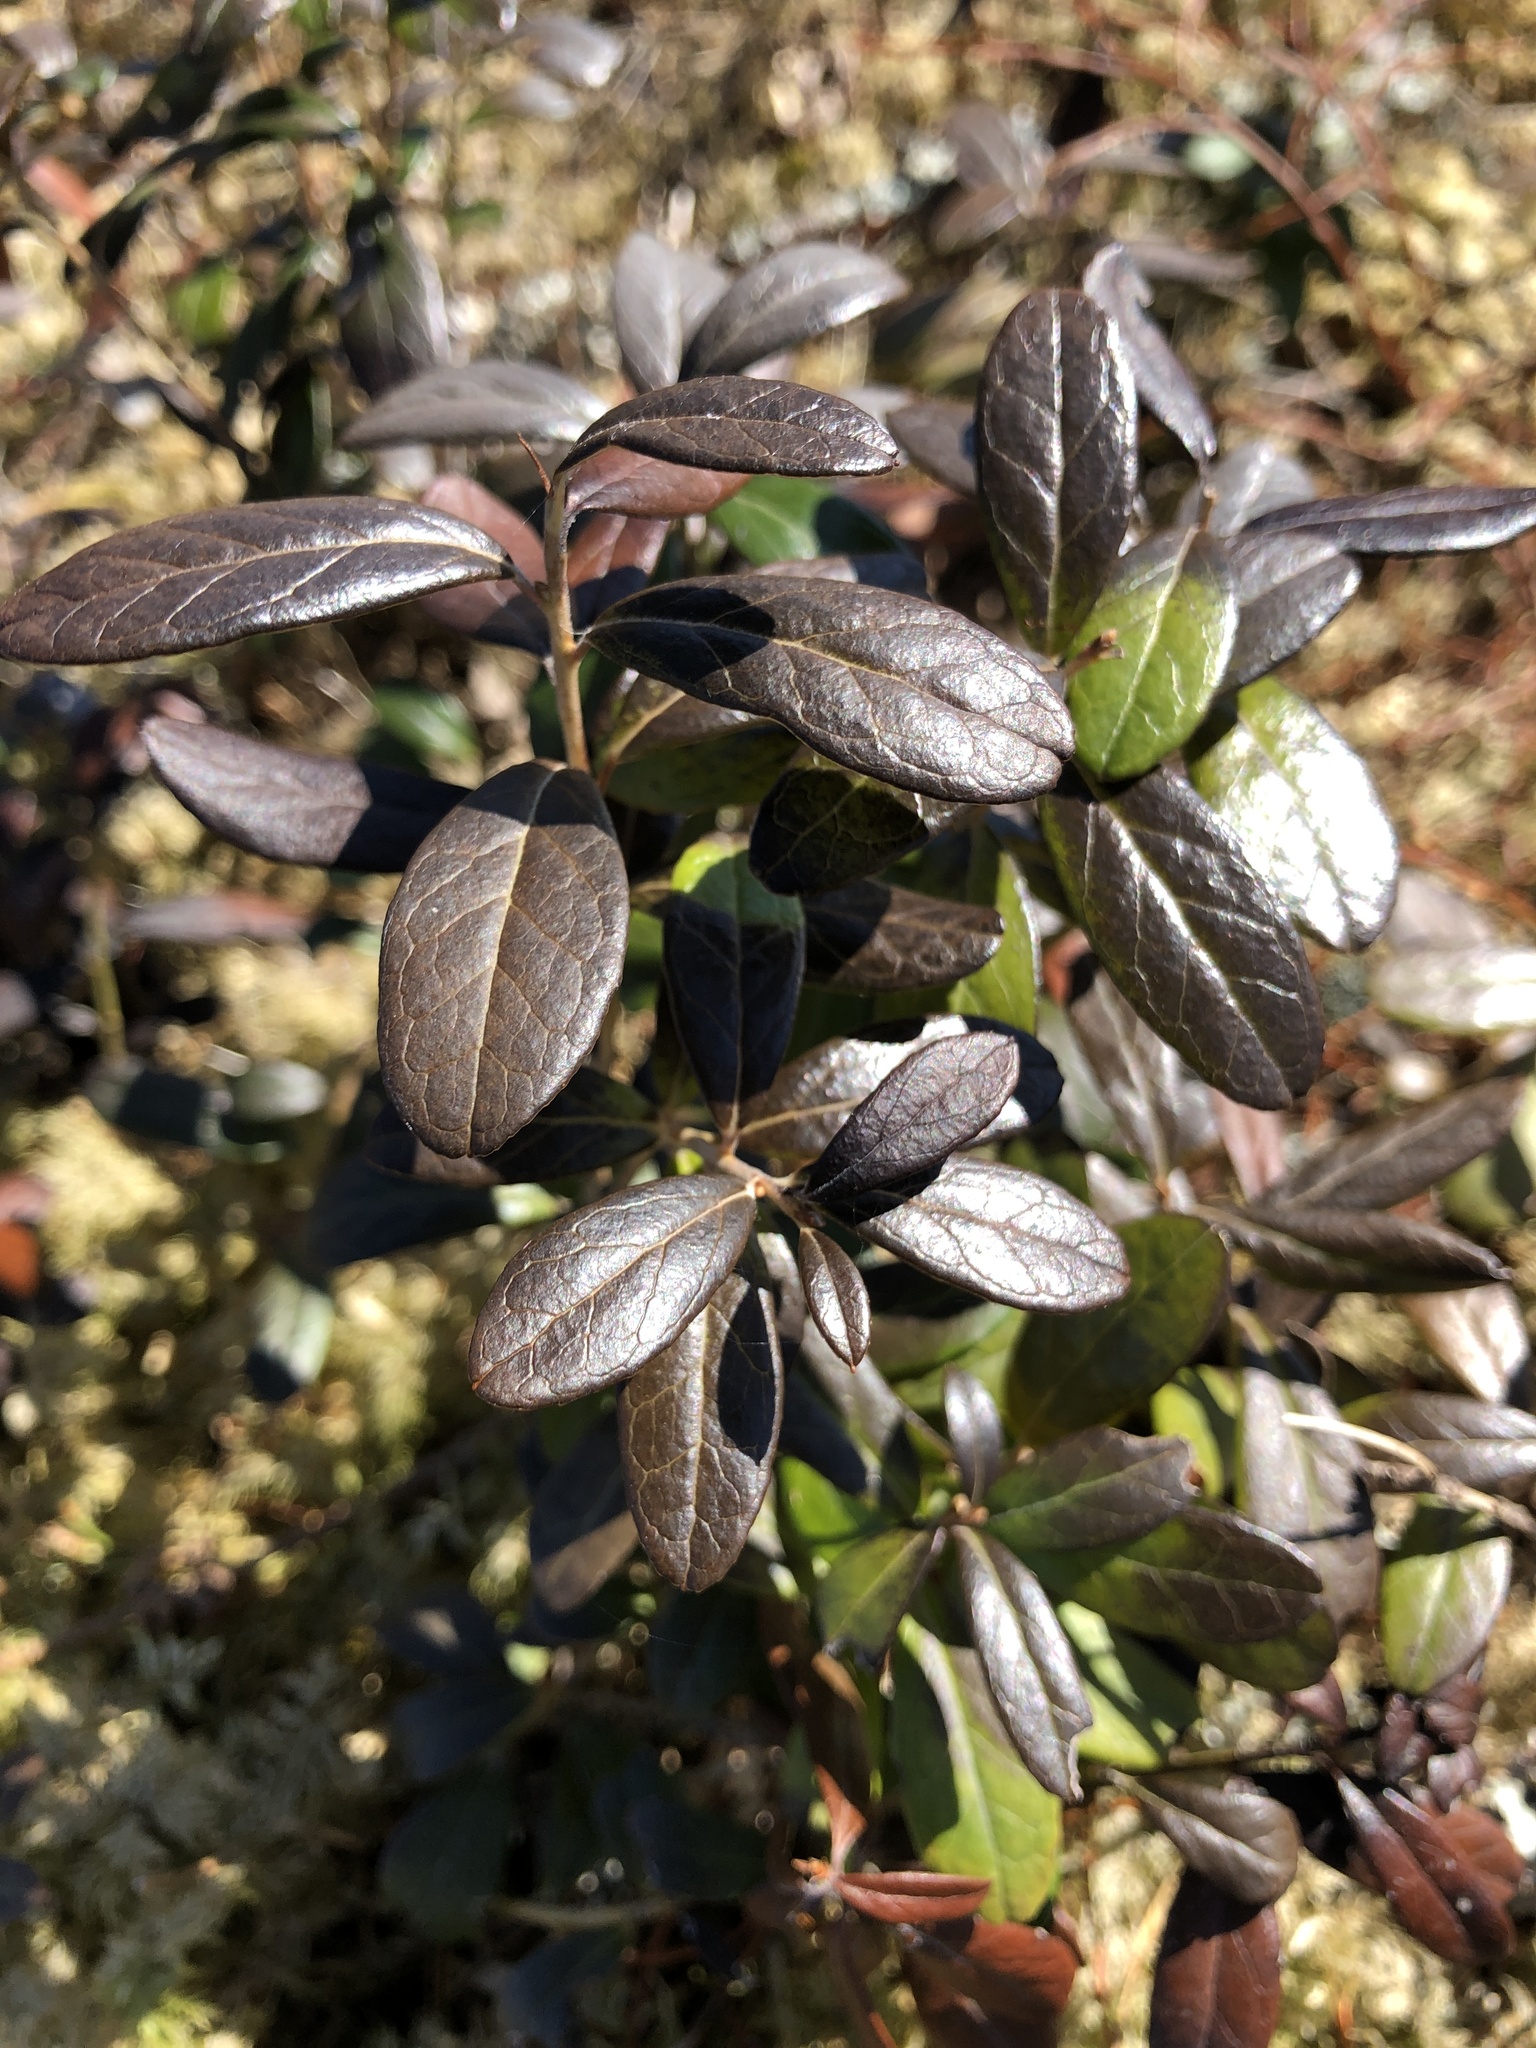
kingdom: Plantae
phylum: Tracheophyta
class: Magnoliopsida
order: Ericales
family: Ericaceae
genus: Vaccinium
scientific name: Vaccinium vitis-idaea
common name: Cowberry
